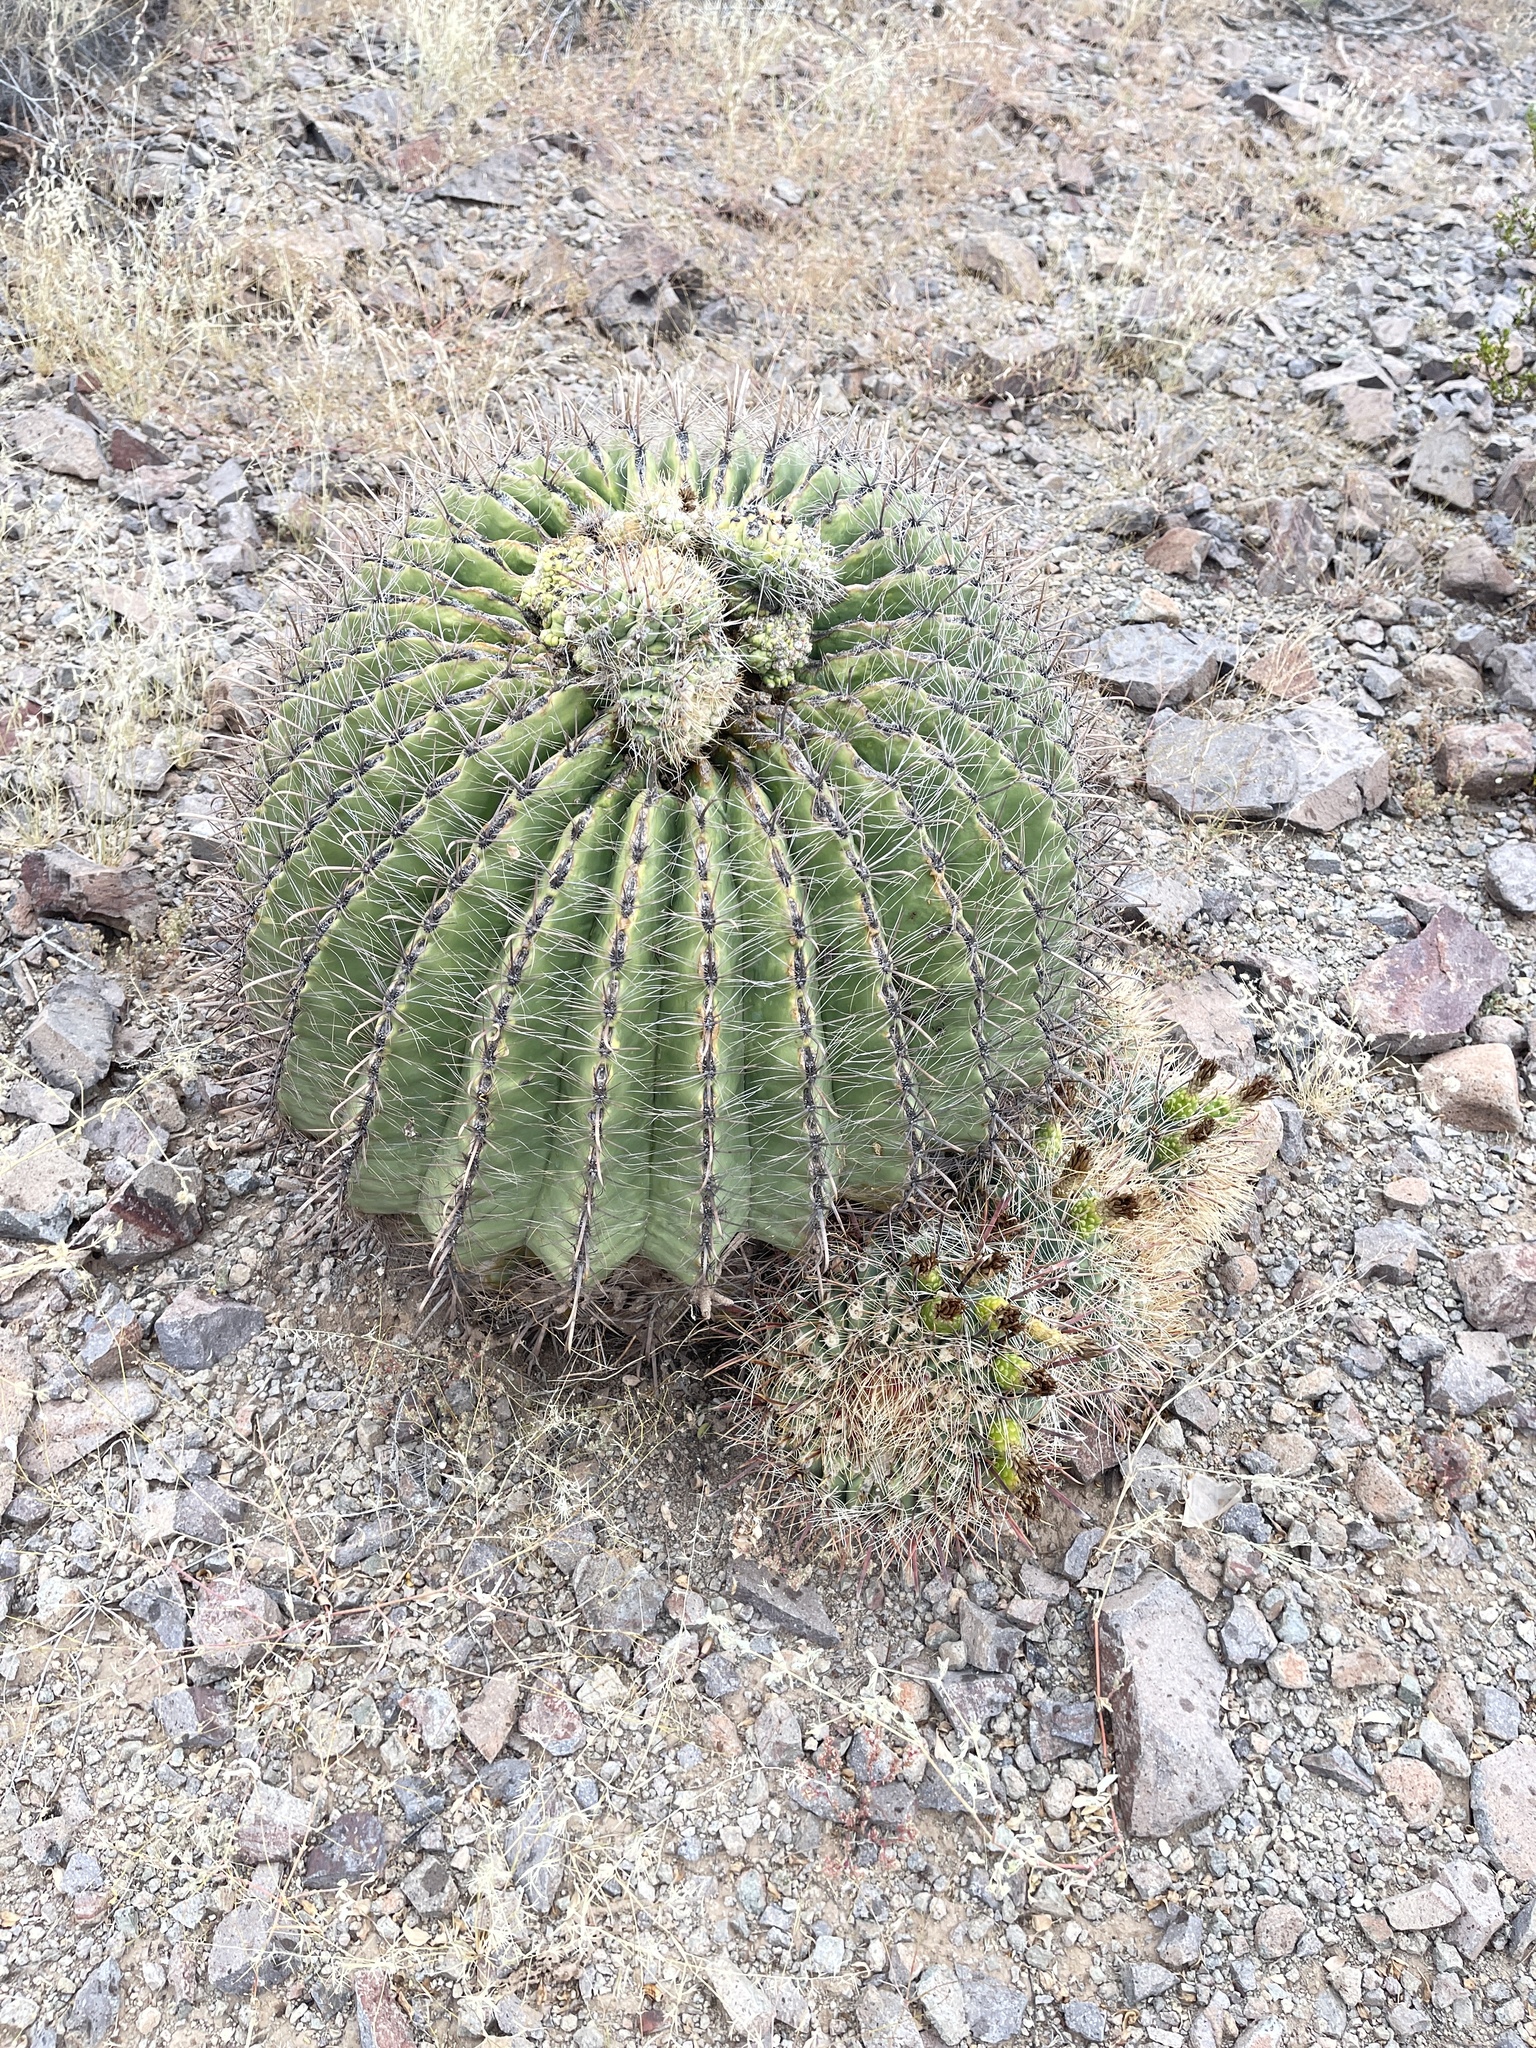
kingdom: Plantae
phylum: Tracheophyta
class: Magnoliopsida
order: Caryophyllales
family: Cactaceae
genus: Ferocactus
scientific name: Ferocactus wislizeni
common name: Candy barrel cactus
